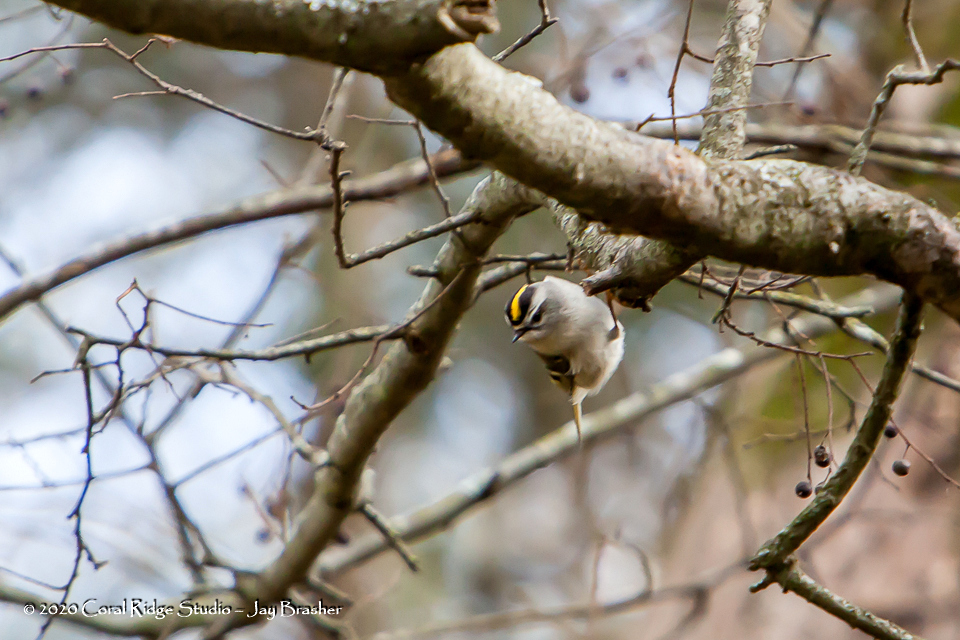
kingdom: Animalia
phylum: Chordata
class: Aves
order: Passeriformes
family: Regulidae
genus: Regulus
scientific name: Regulus satrapa
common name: Golden-crowned kinglet
